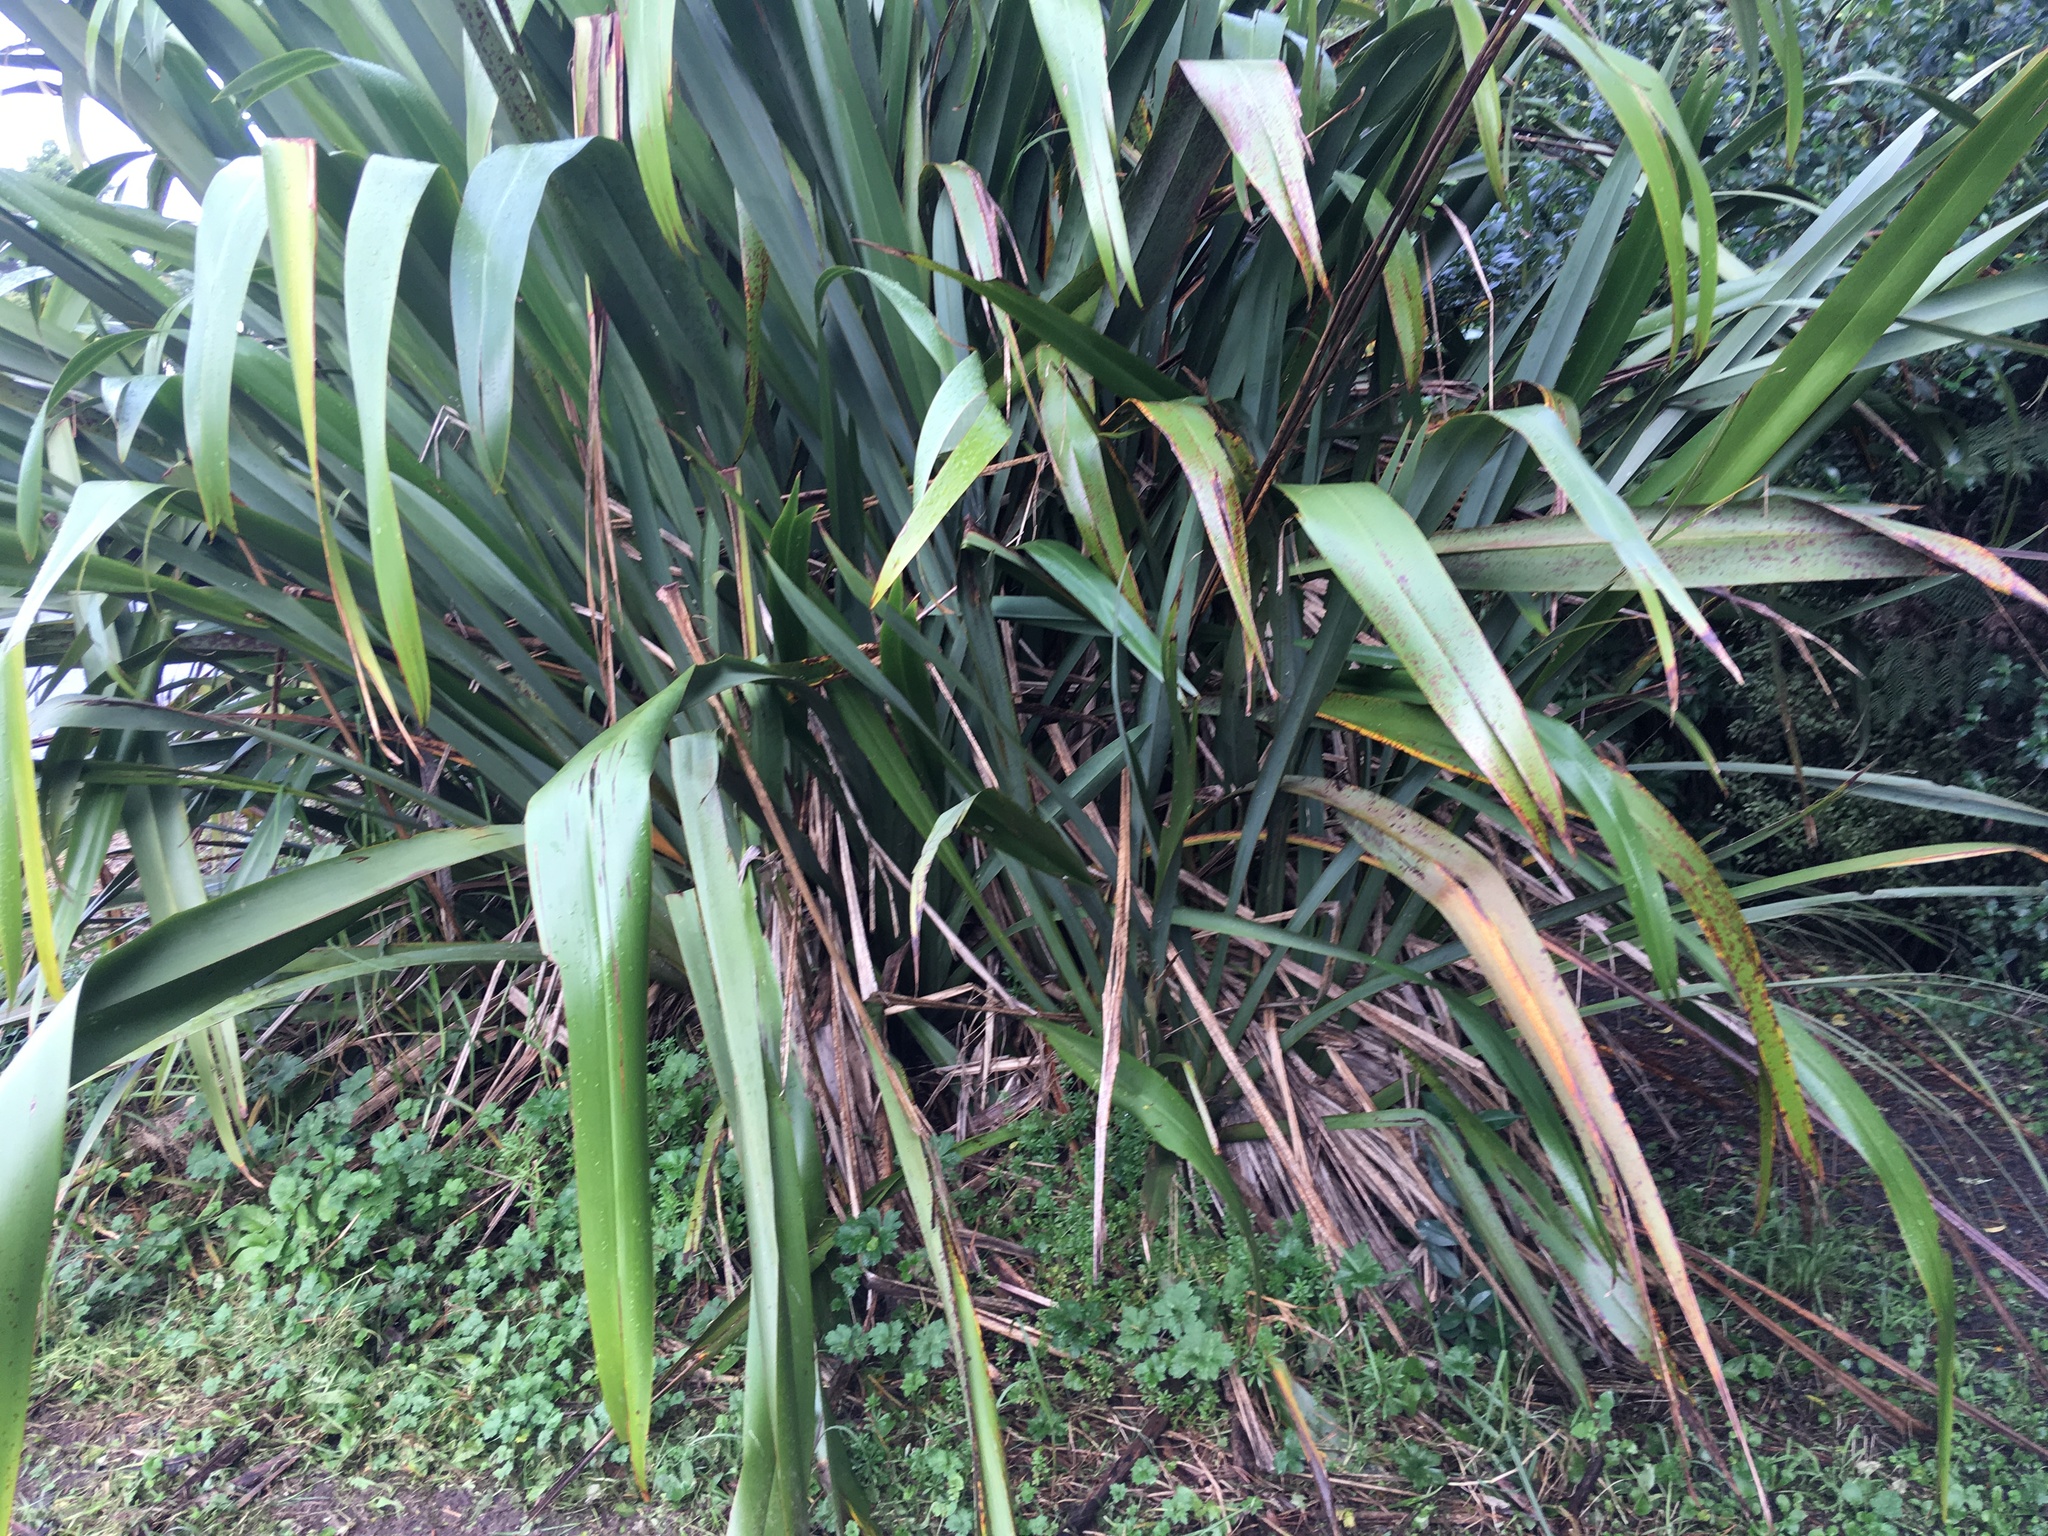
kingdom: Plantae
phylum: Tracheophyta
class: Liliopsida
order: Asparagales
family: Asphodelaceae
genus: Phormium
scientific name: Phormium tenax
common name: New zealand flax
